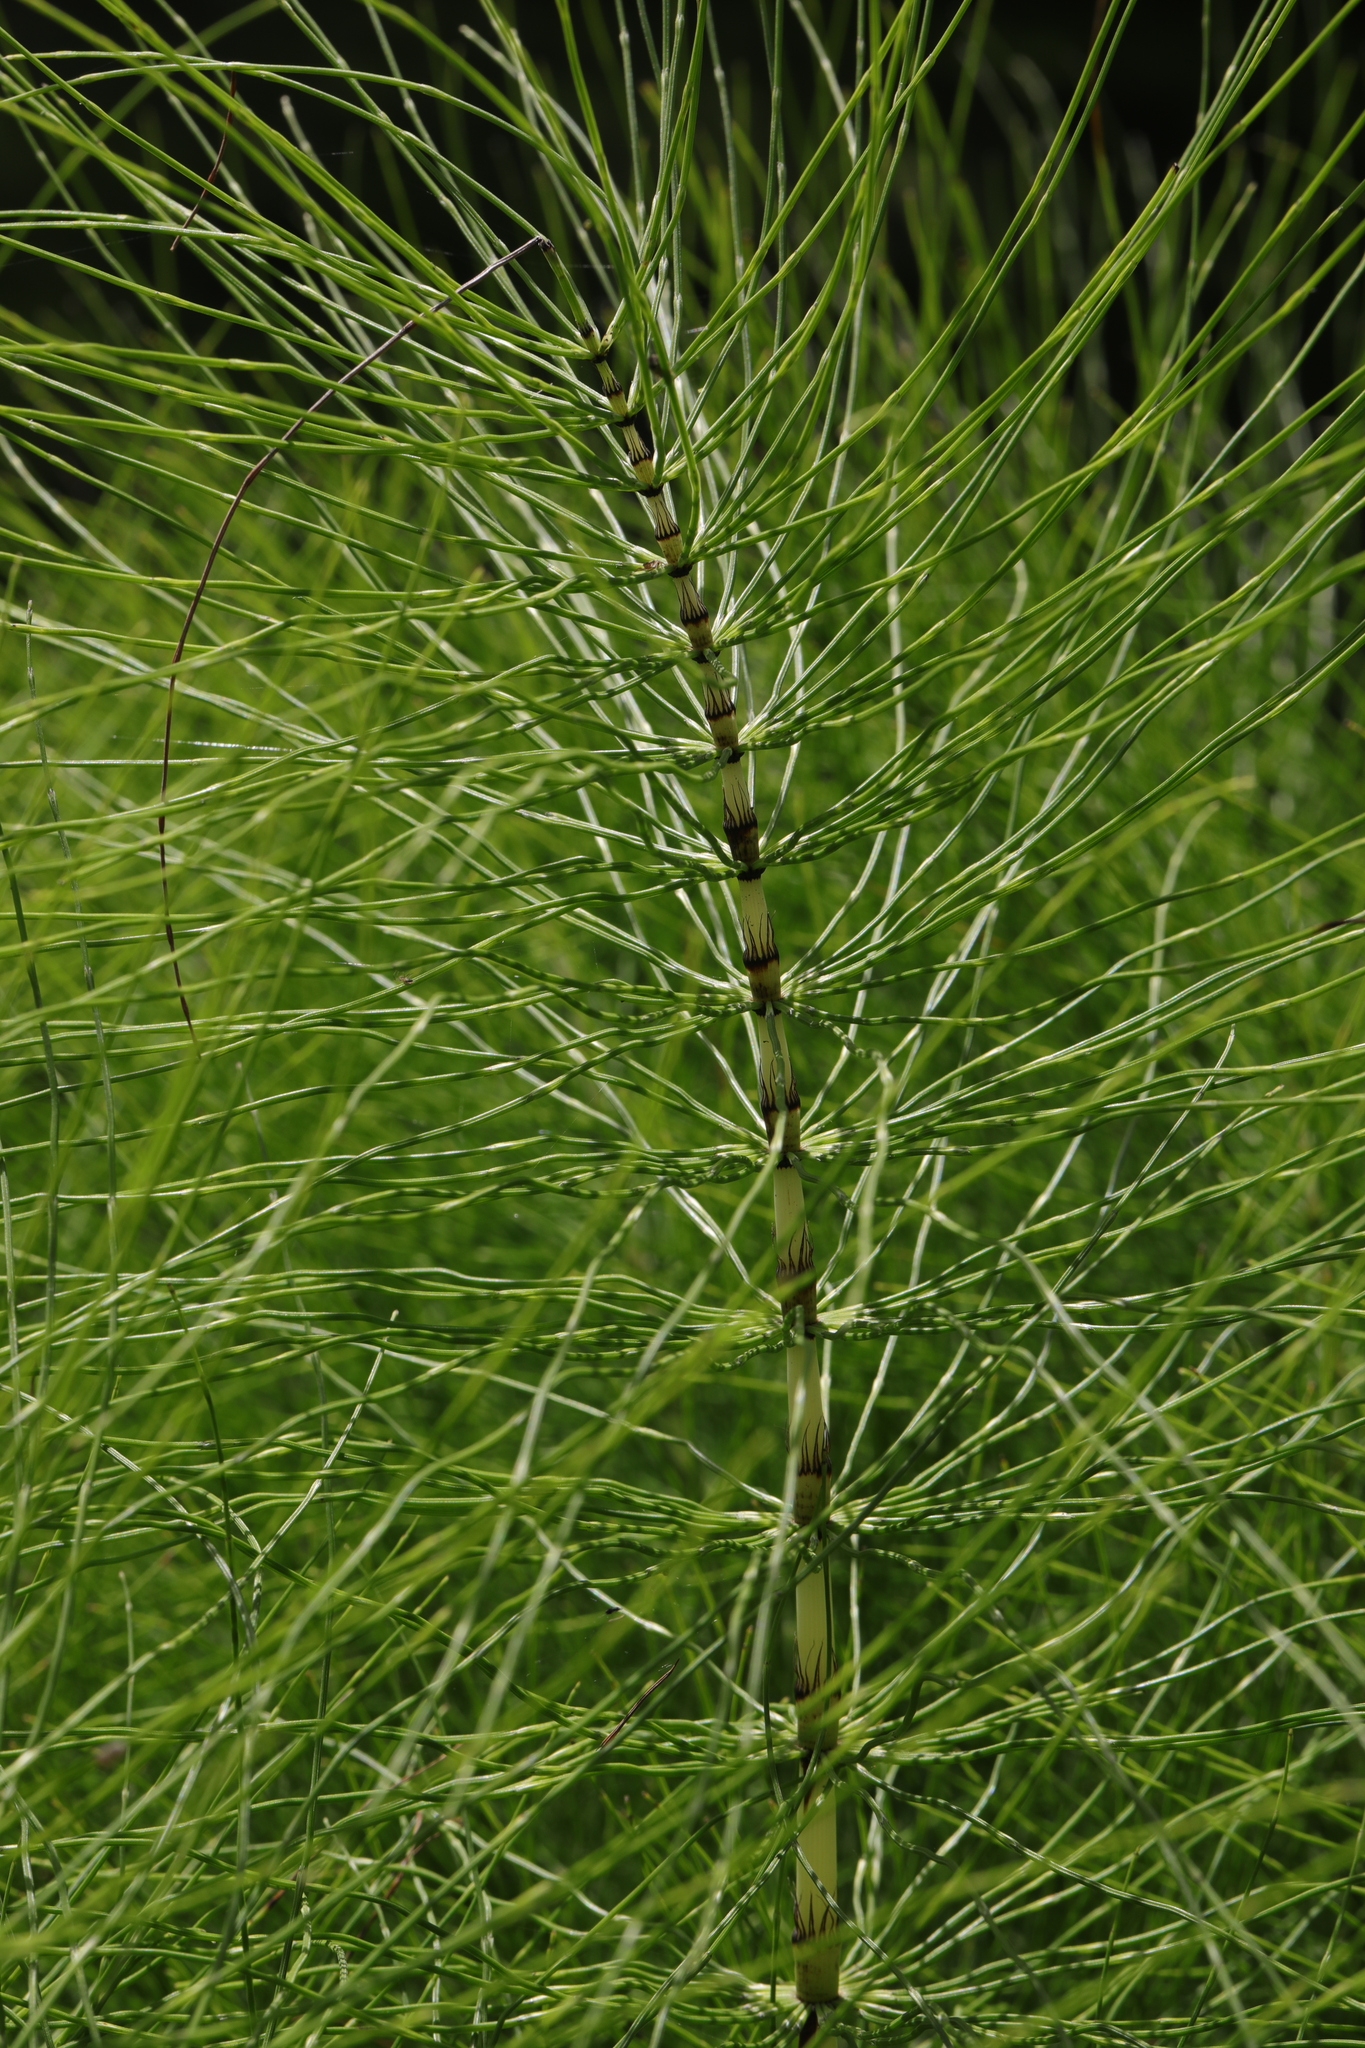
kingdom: Plantae
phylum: Tracheophyta
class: Polypodiopsida
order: Equisetales
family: Equisetaceae
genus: Equisetum
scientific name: Equisetum telmateia
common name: Great horsetail
